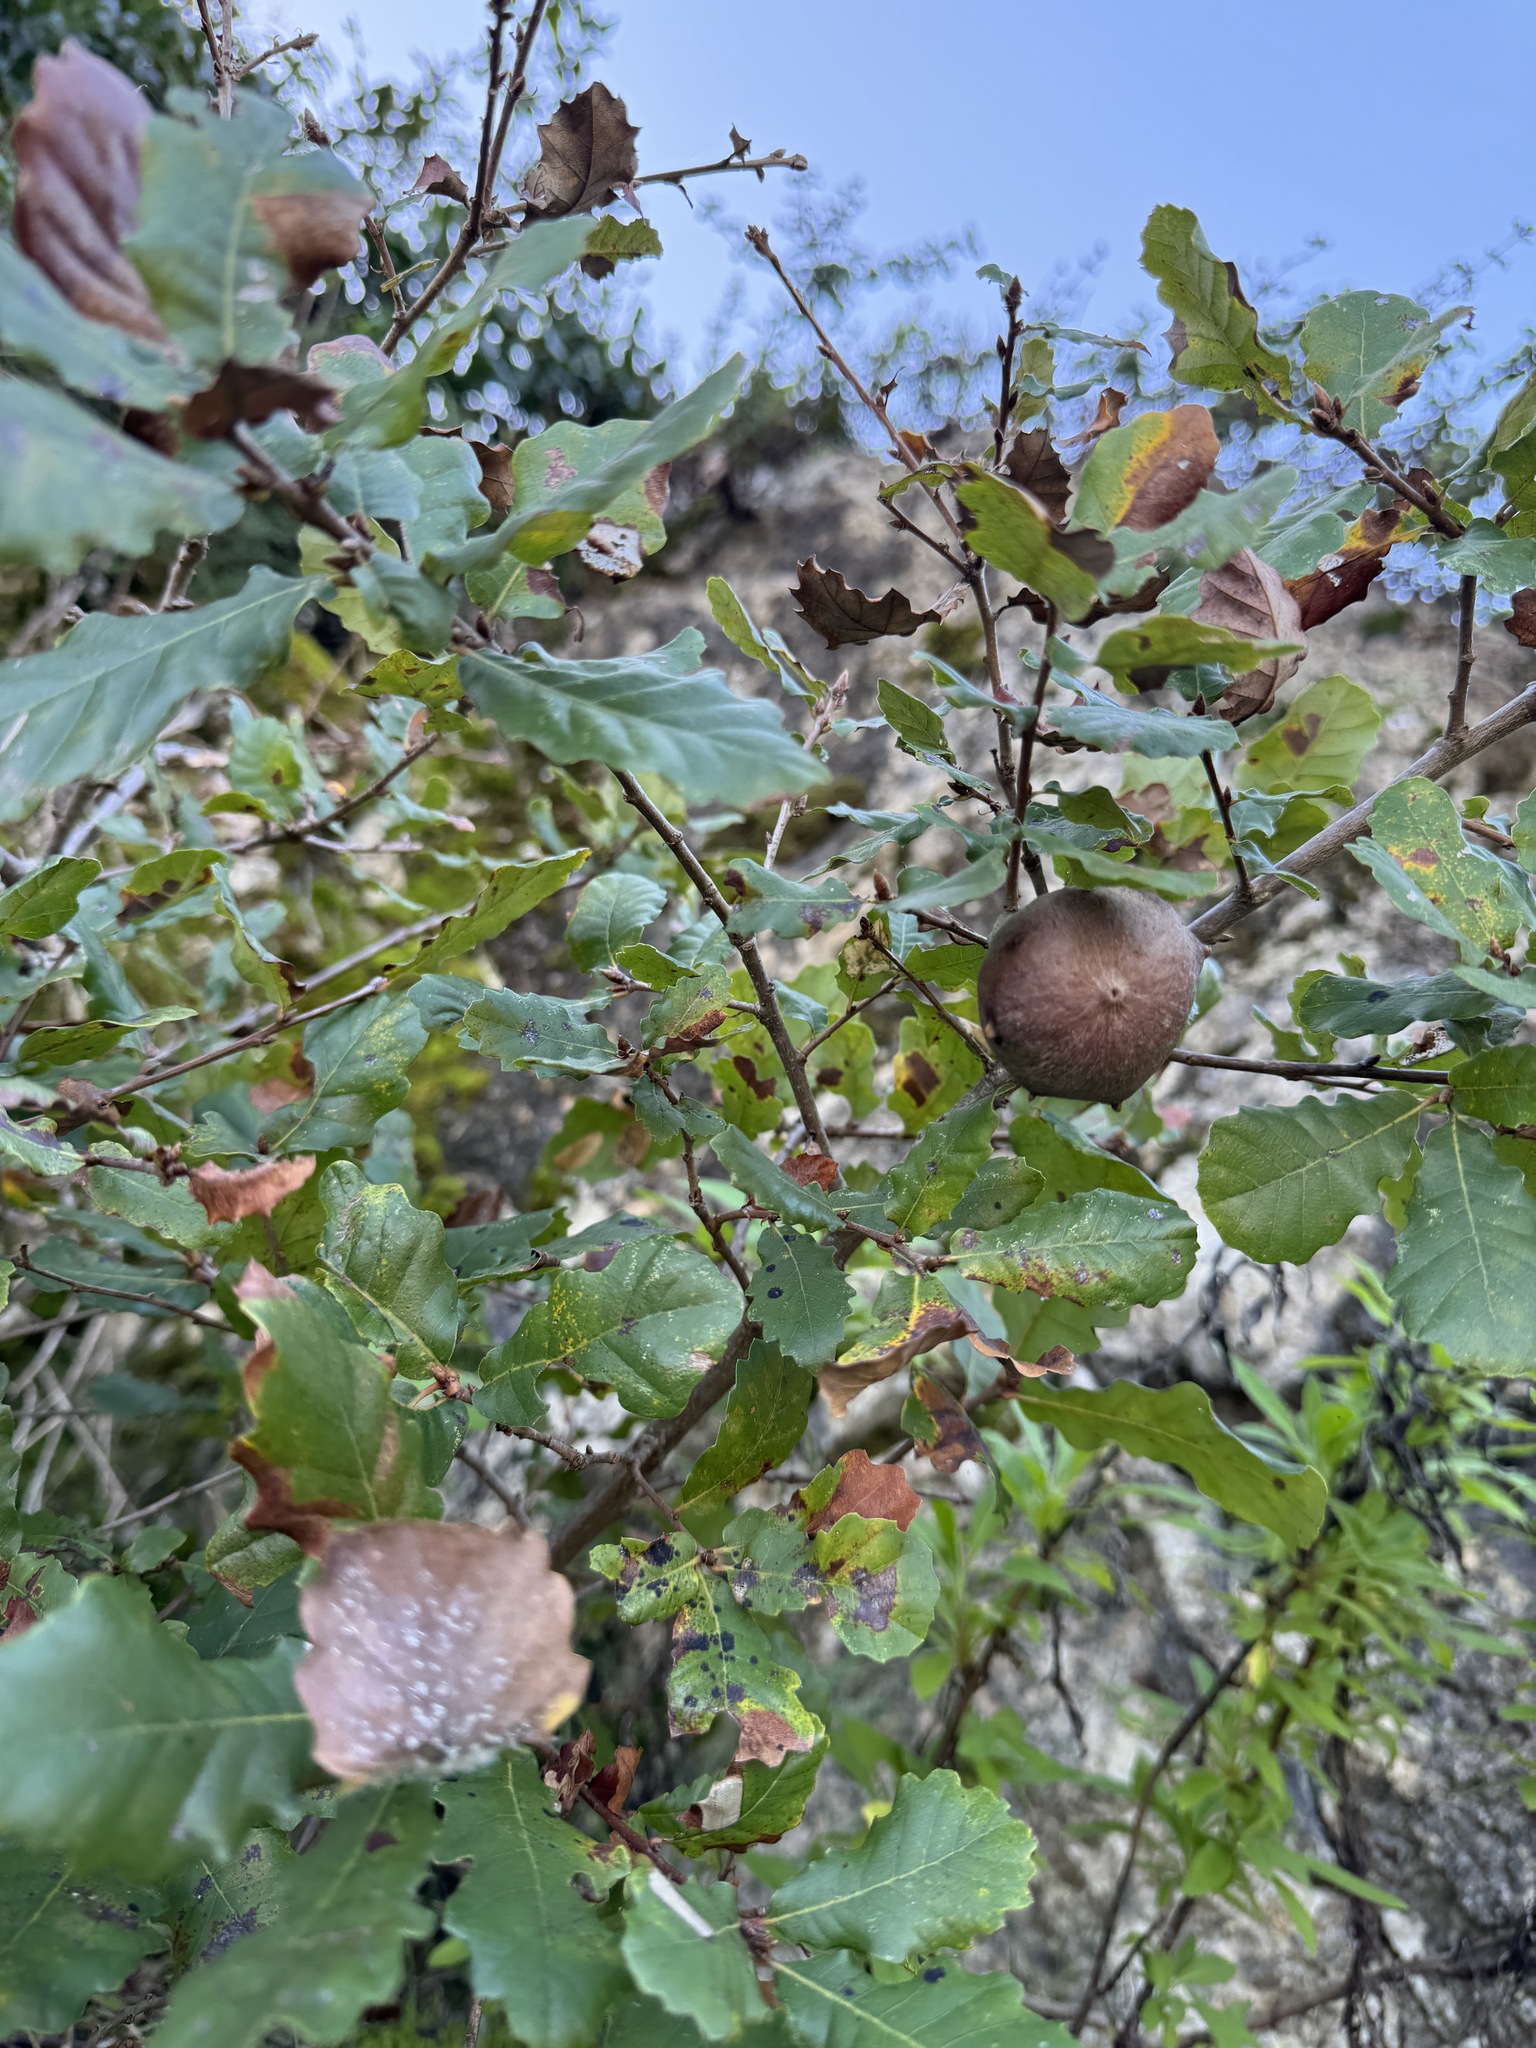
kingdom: Animalia
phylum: Arthropoda
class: Insecta
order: Hymenoptera
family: Cynipidae
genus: Andricus
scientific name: Andricus quercustozae
